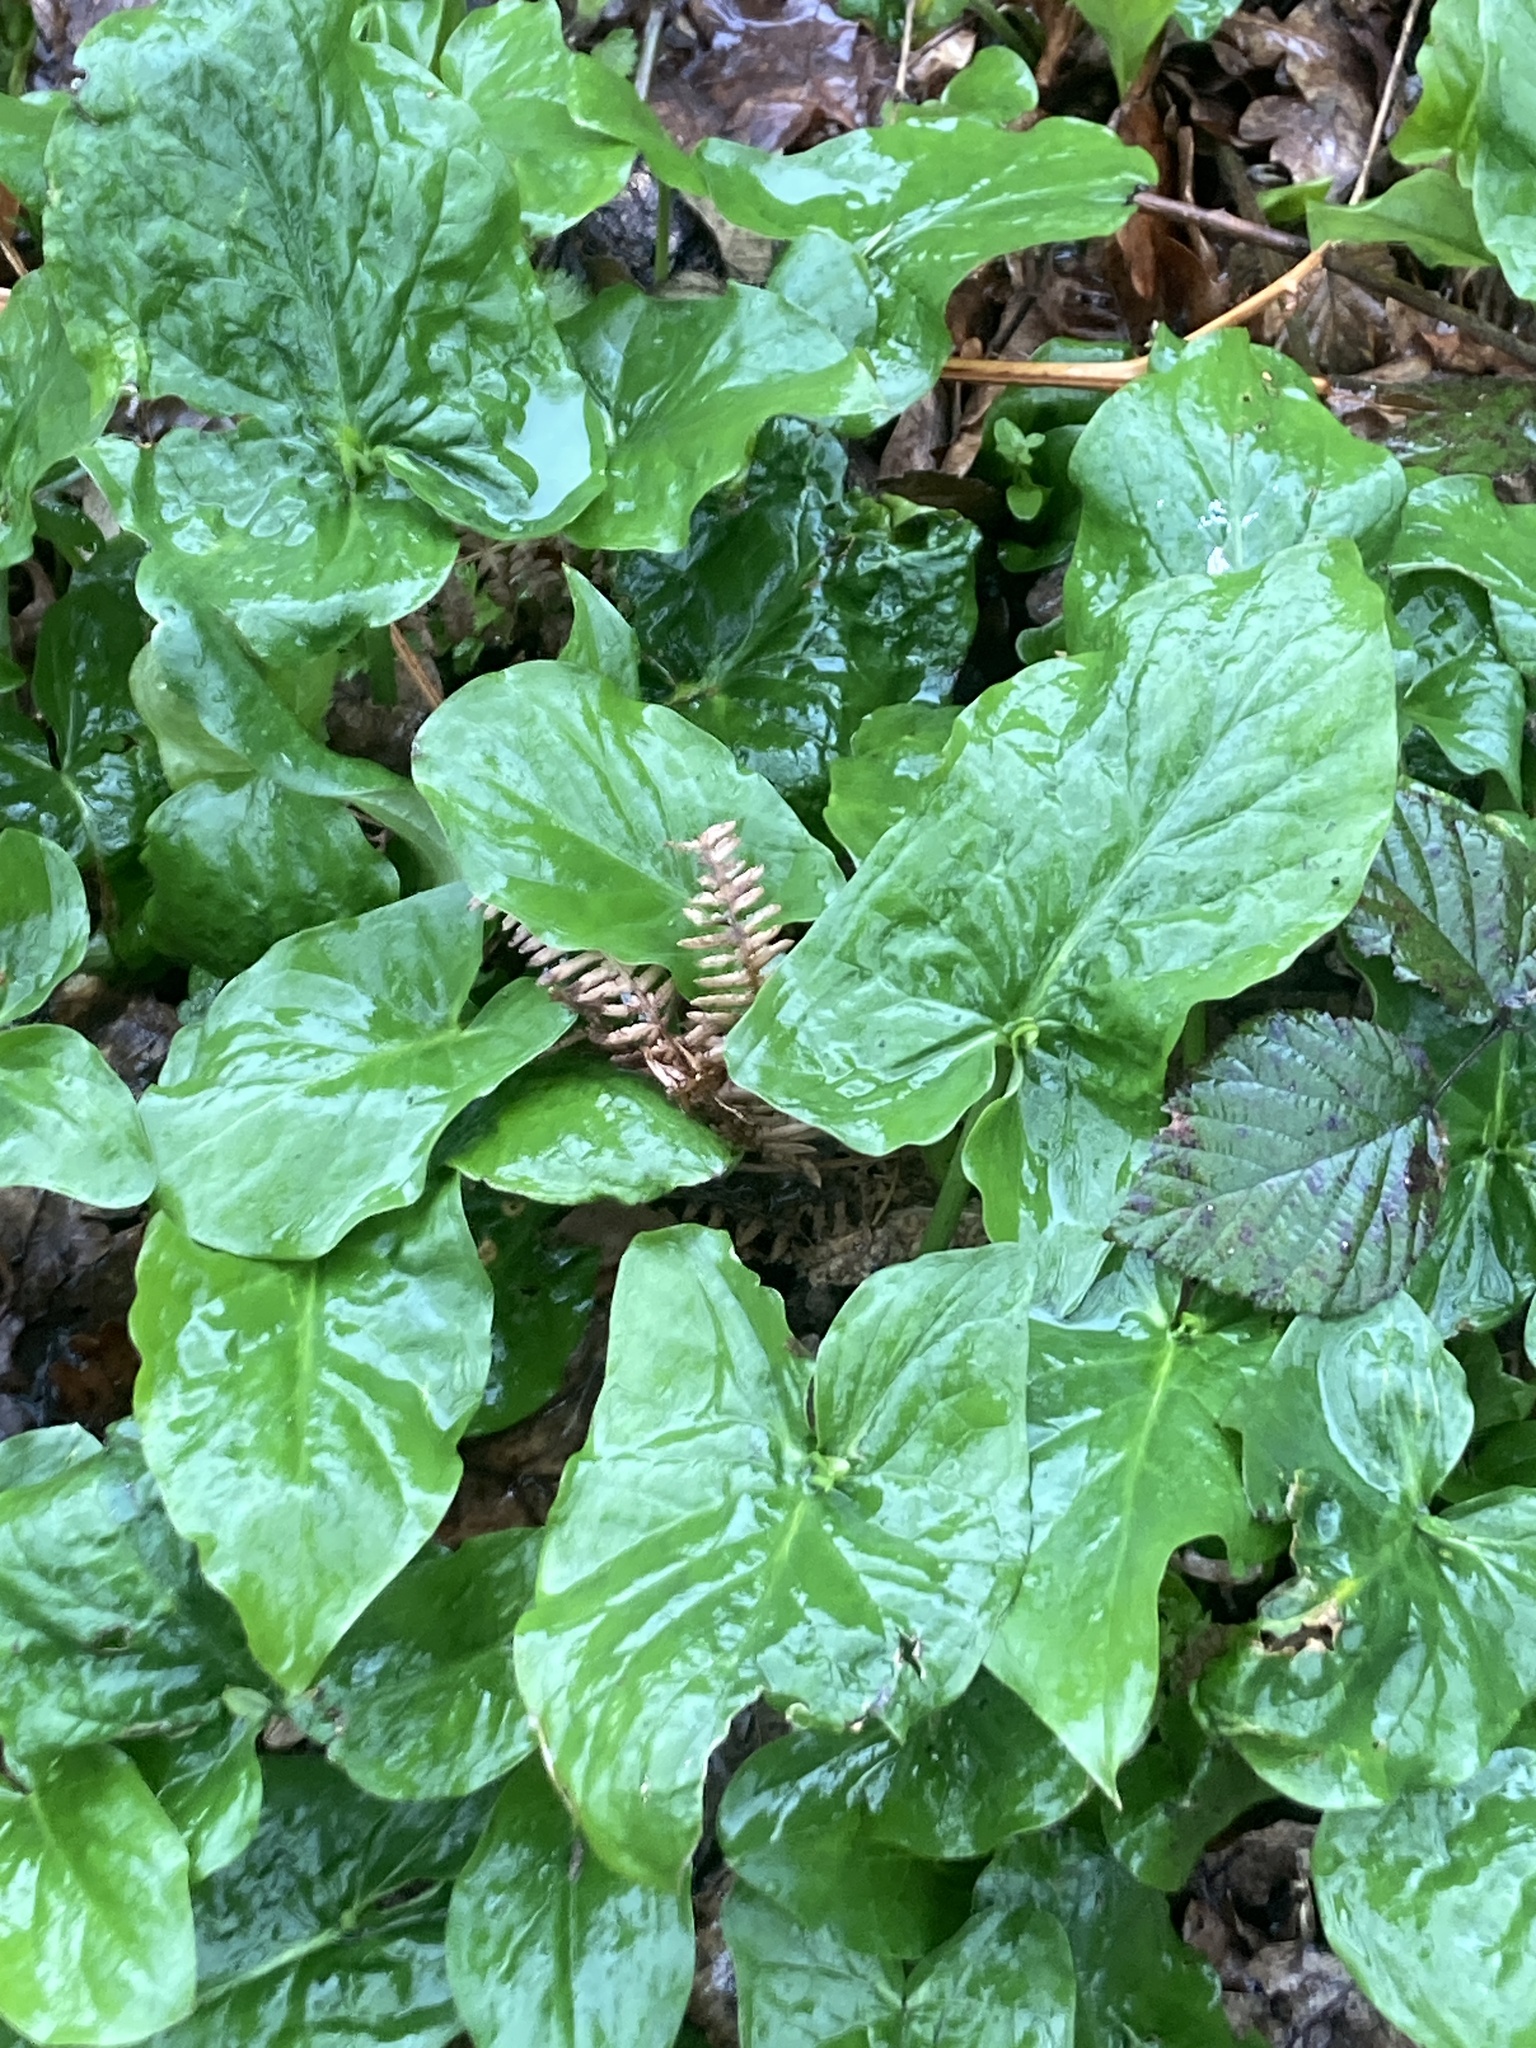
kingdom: Plantae
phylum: Tracheophyta
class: Liliopsida
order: Alismatales
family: Araceae
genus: Arum
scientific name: Arum maculatum
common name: Lords-and-ladies
